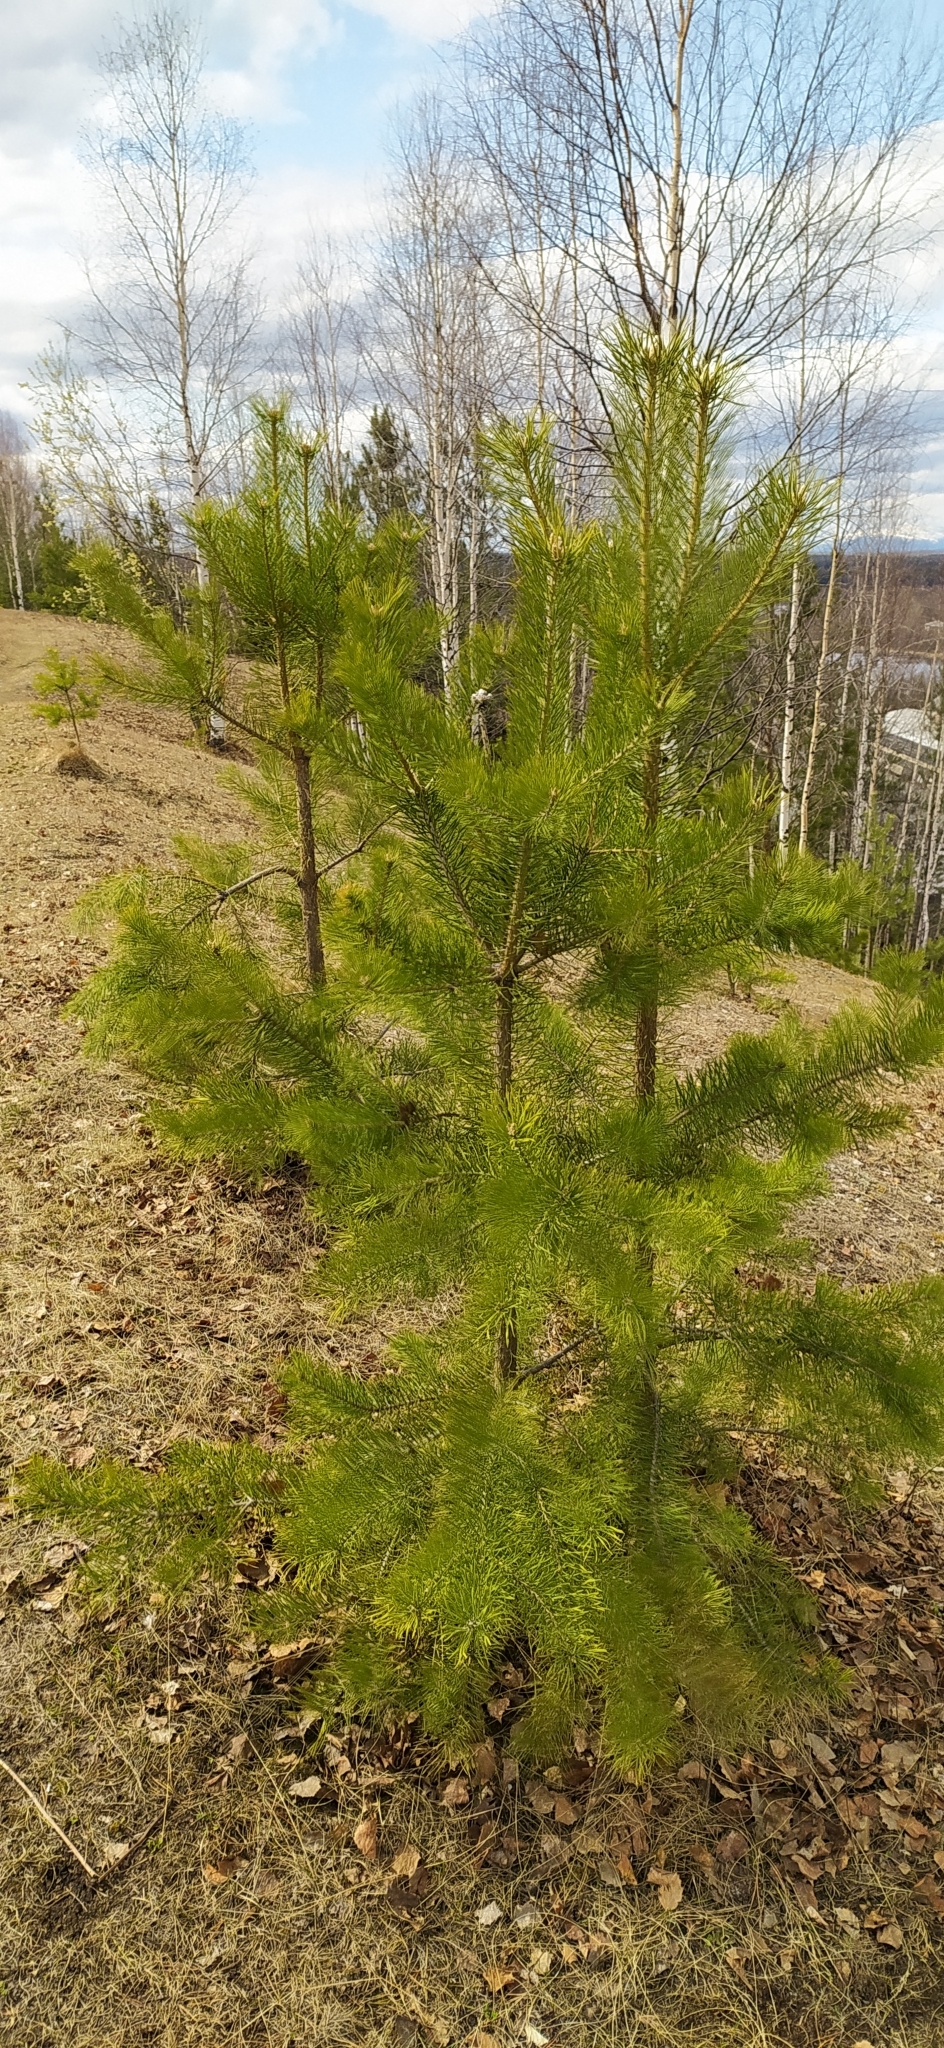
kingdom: Plantae
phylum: Tracheophyta
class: Pinopsida
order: Pinales
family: Pinaceae
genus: Pinus
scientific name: Pinus sylvestris
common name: Scots pine
